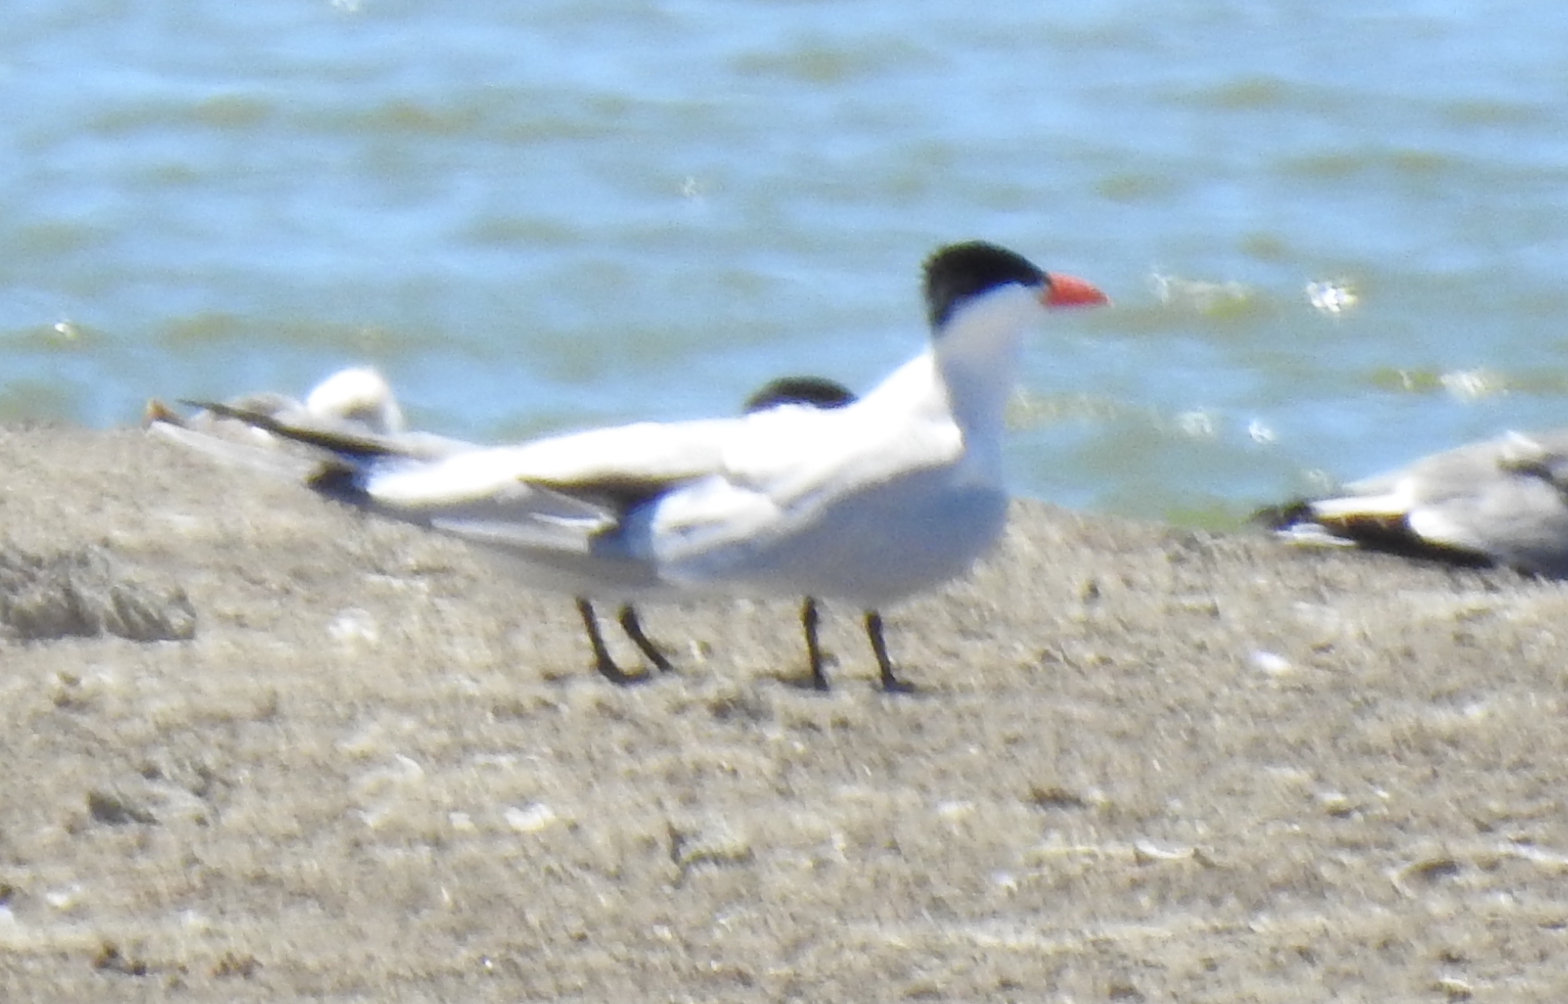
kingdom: Animalia
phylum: Chordata
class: Aves
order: Charadriiformes
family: Laridae
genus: Hydroprogne
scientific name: Hydroprogne caspia
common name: Caspian tern
